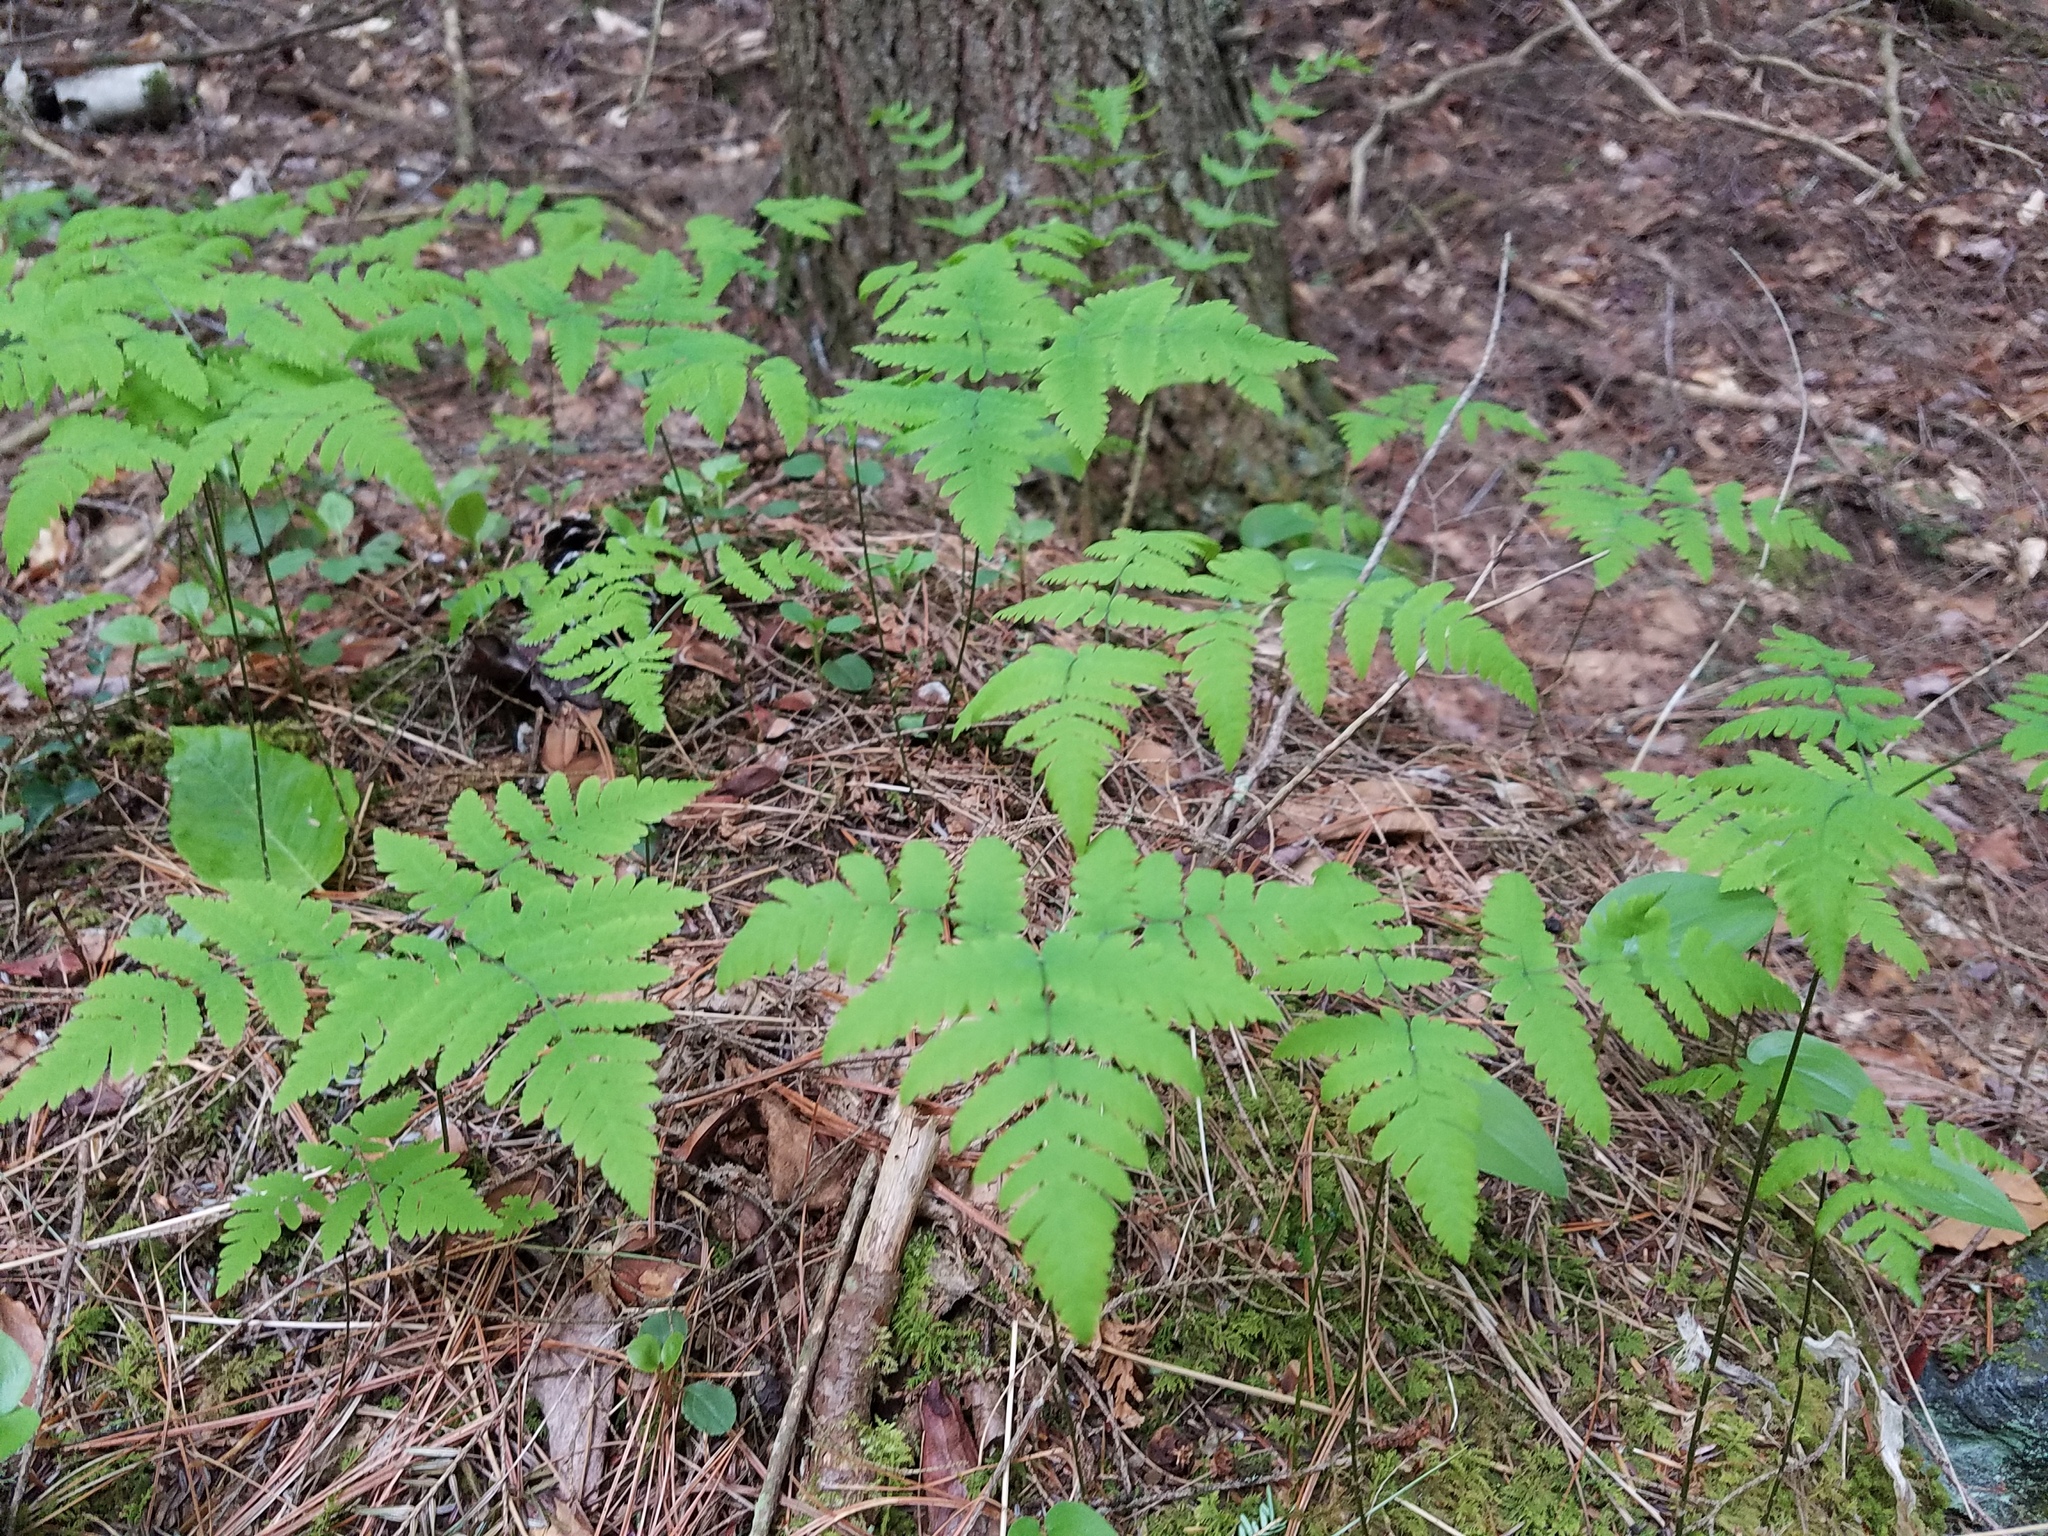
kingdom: Plantae
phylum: Tracheophyta
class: Polypodiopsida
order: Polypodiales
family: Cystopteridaceae
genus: Gymnocarpium
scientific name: Gymnocarpium dryopteris
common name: Oak fern
